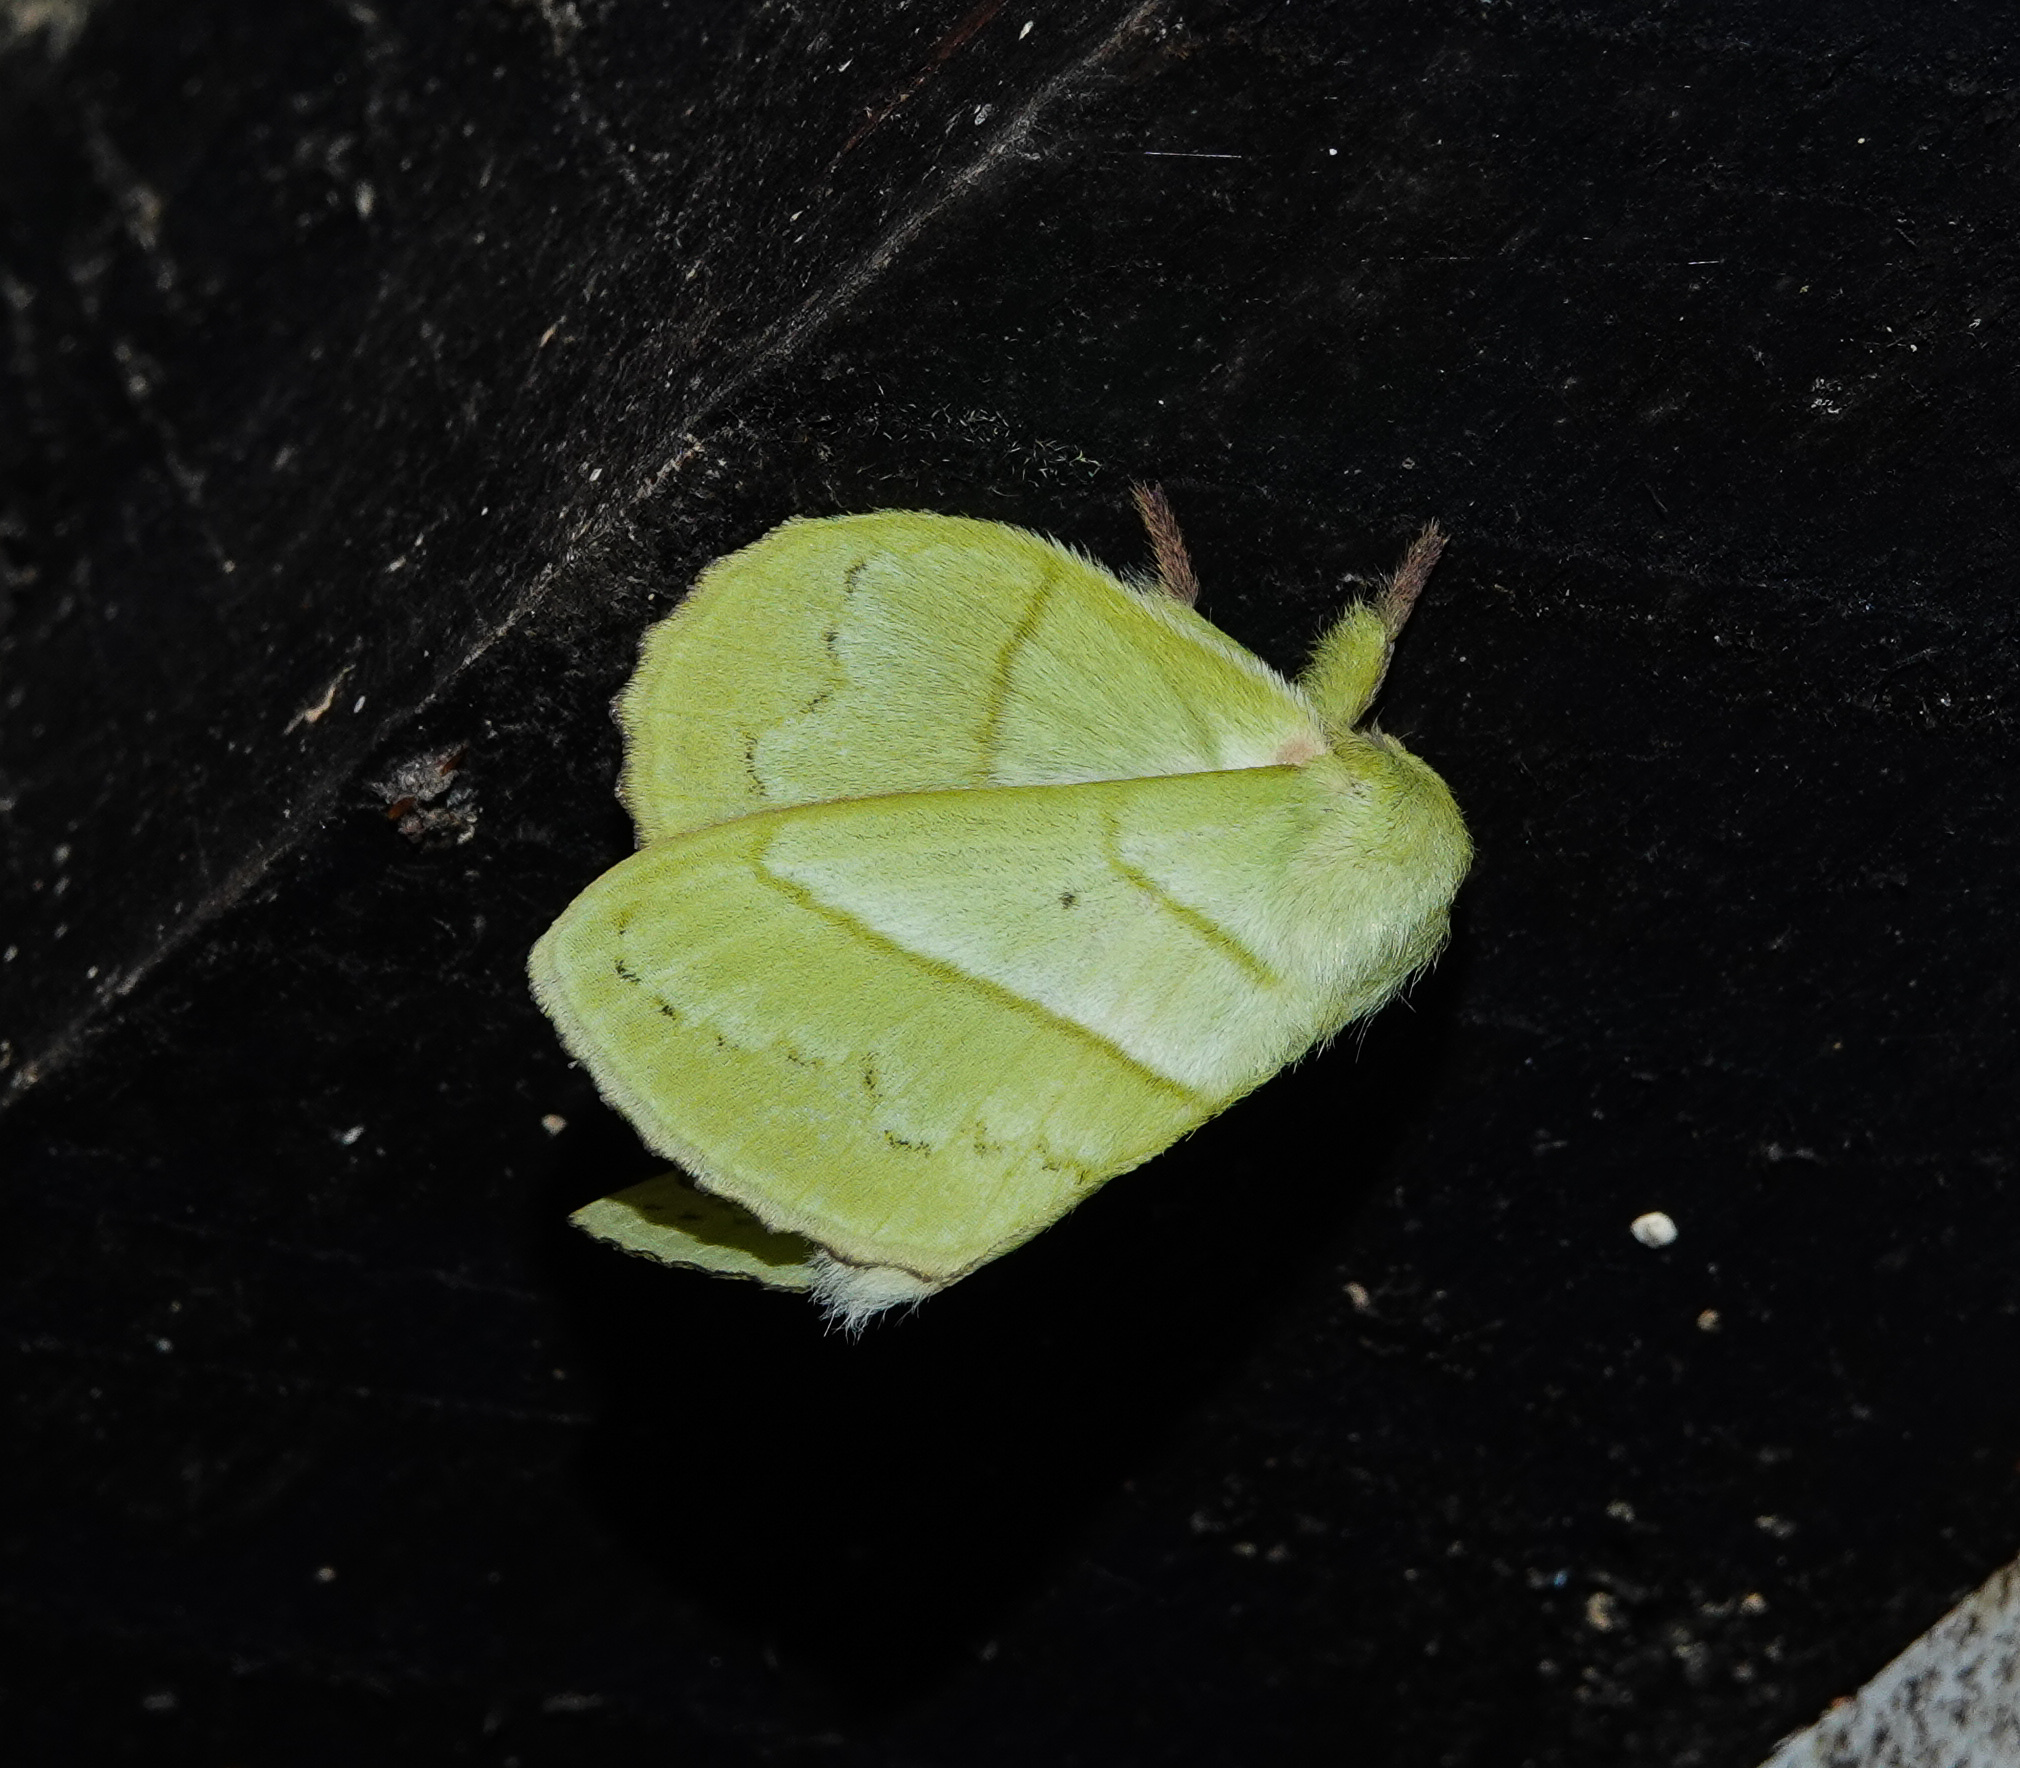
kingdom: Animalia
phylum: Arthropoda
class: Insecta
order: Lepidoptera
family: Lasiocampidae
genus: Trabala
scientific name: Trabala vishnou
